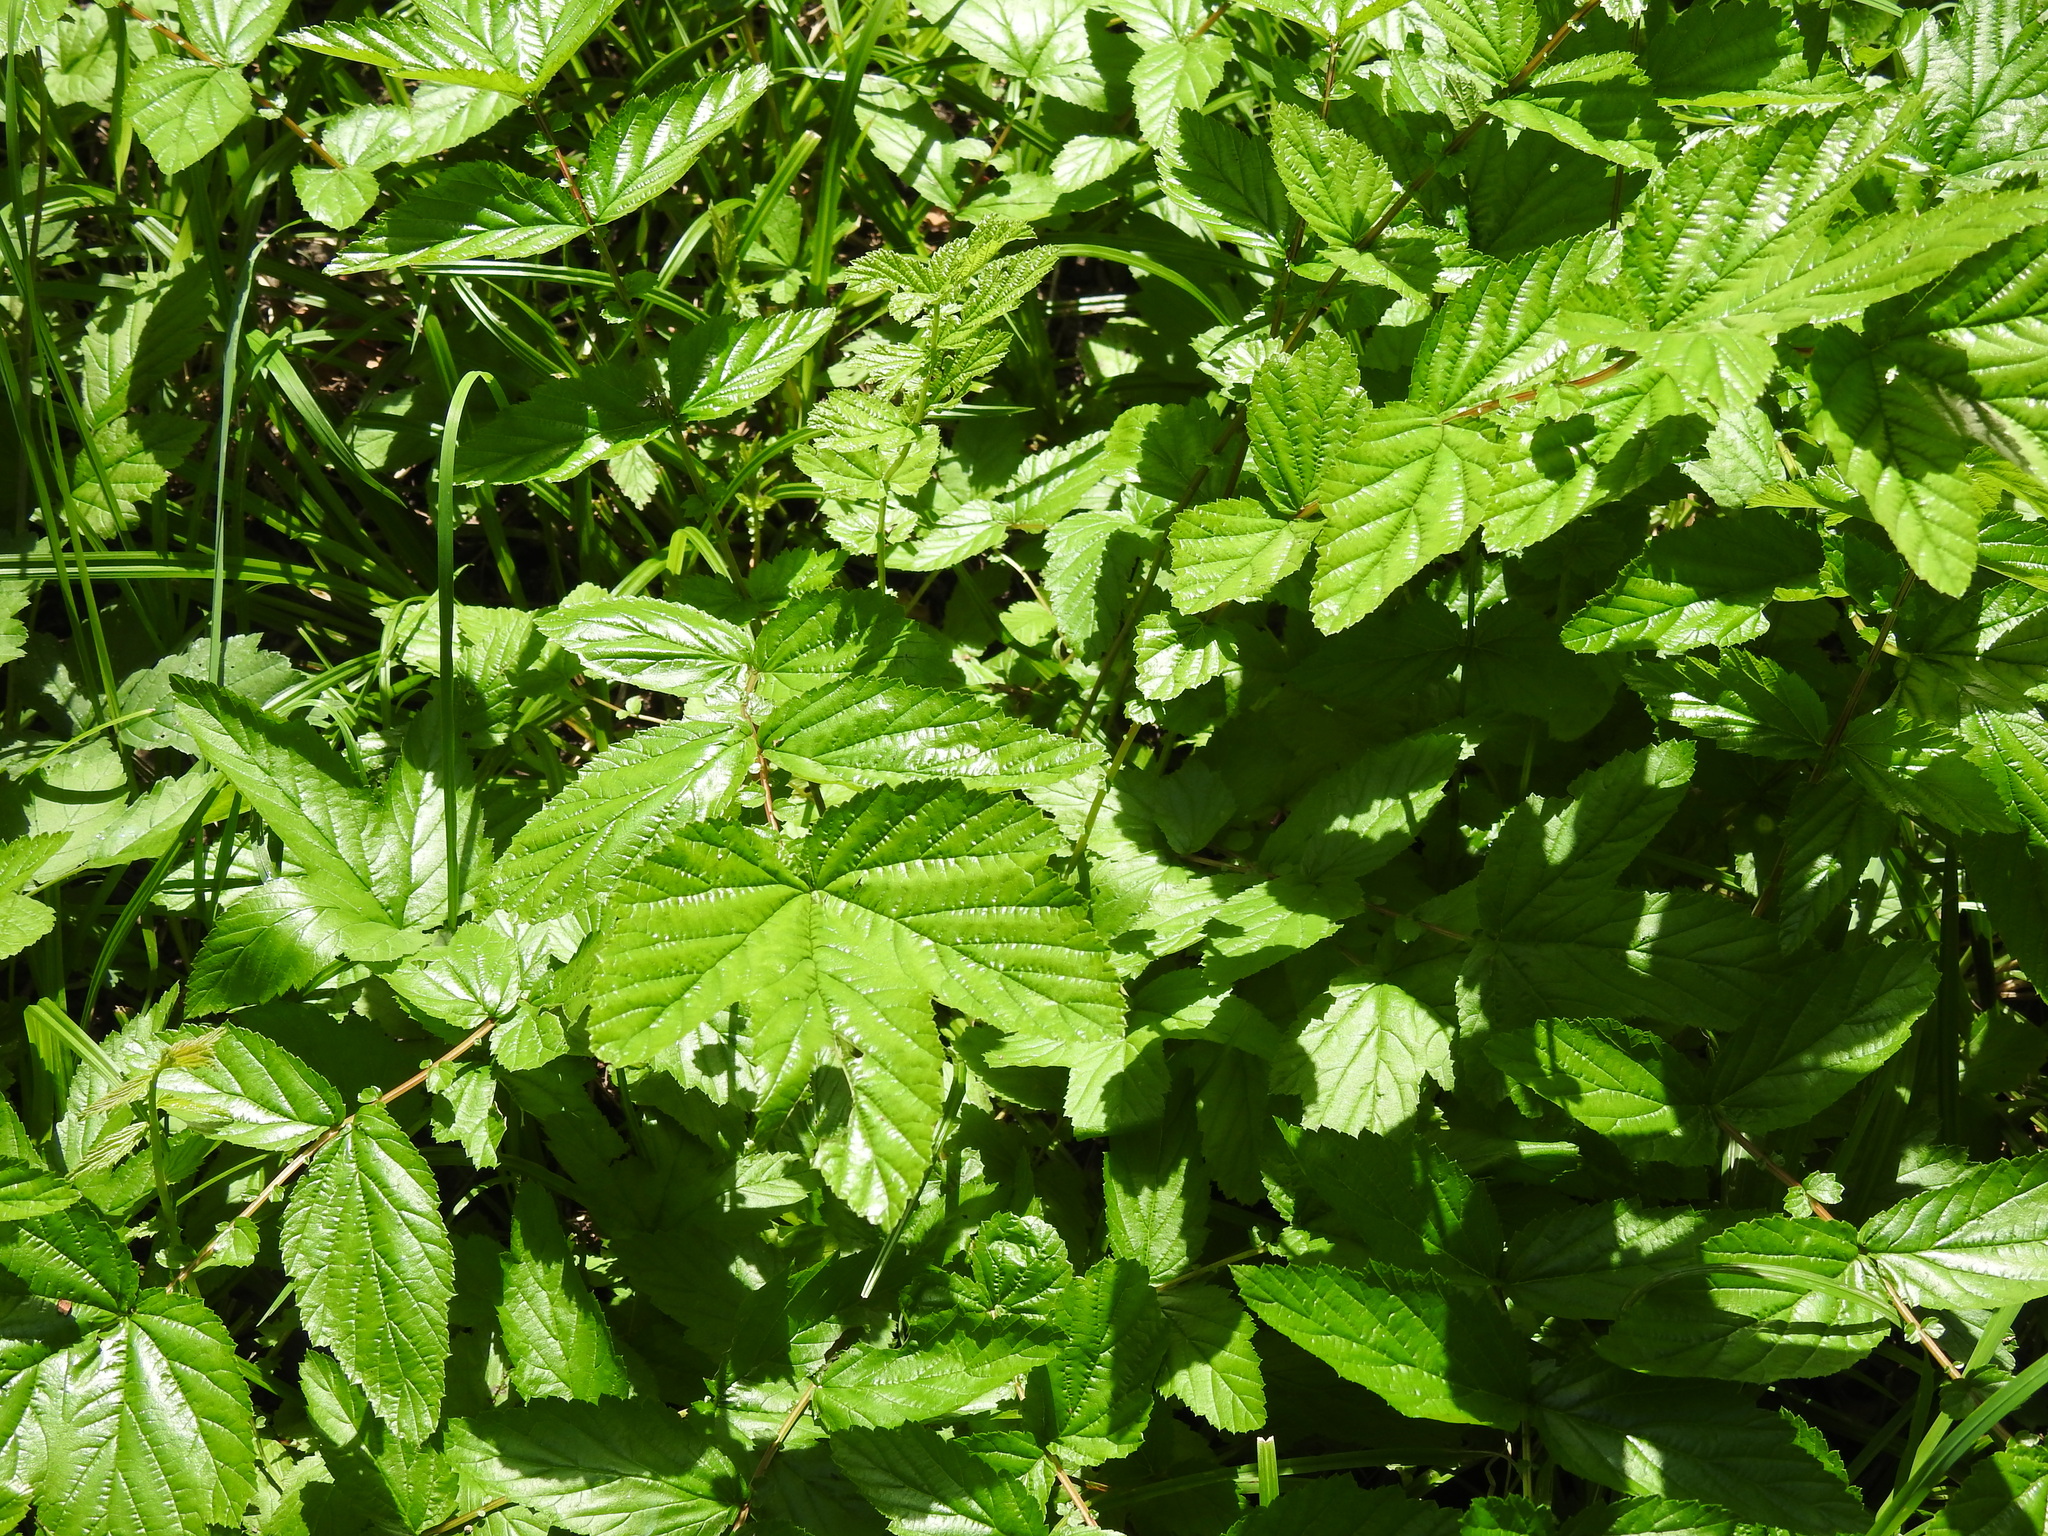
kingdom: Plantae
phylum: Tracheophyta
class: Magnoliopsida
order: Rosales
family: Rosaceae
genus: Filipendula
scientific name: Filipendula ulmaria
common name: Meadowsweet
